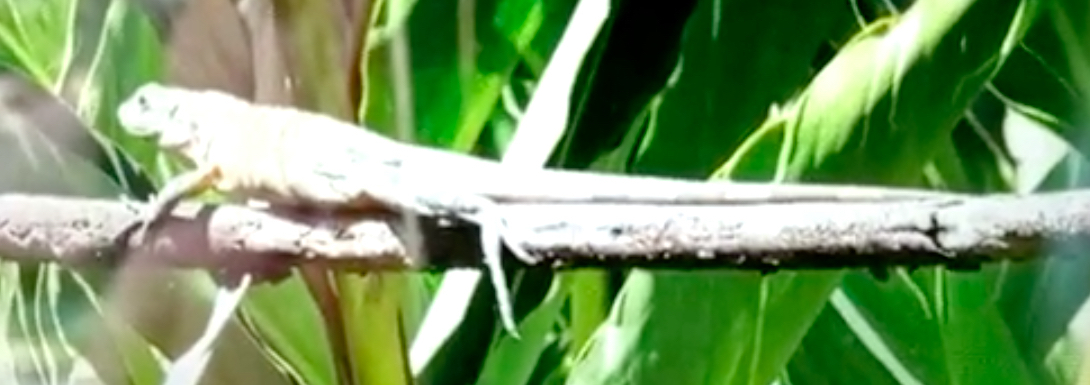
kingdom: Animalia
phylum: Chordata
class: Squamata
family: Iguanidae
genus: Ctenosaura
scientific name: Ctenosaura similis
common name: Black spiny-tailed iguana
